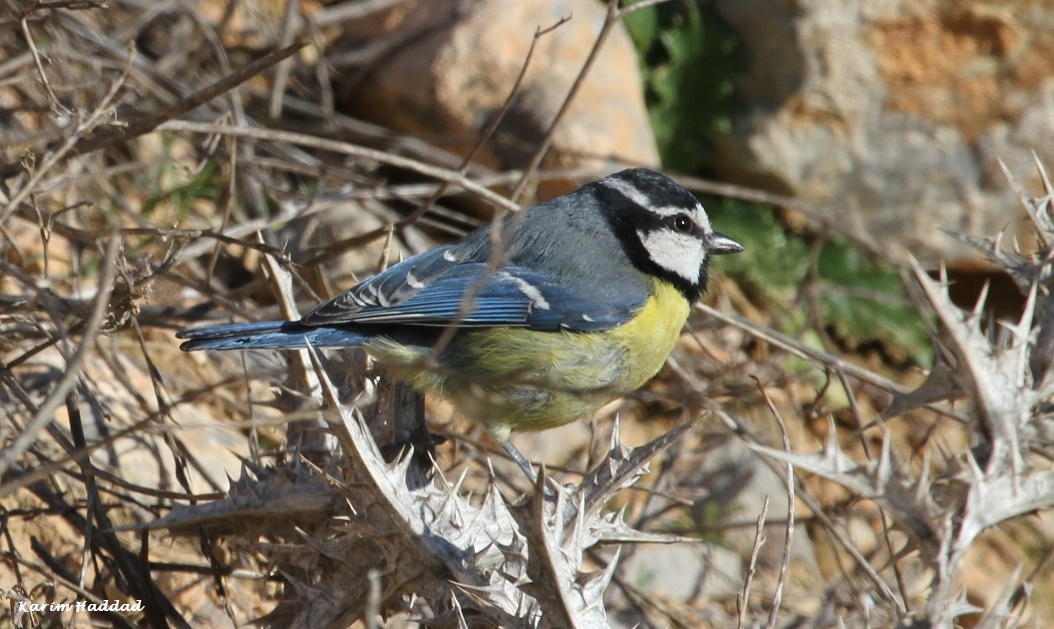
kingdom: Animalia
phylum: Chordata
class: Aves
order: Passeriformes
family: Paridae
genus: Cyanistes
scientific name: Cyanistes teneriffae
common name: African blue tit
